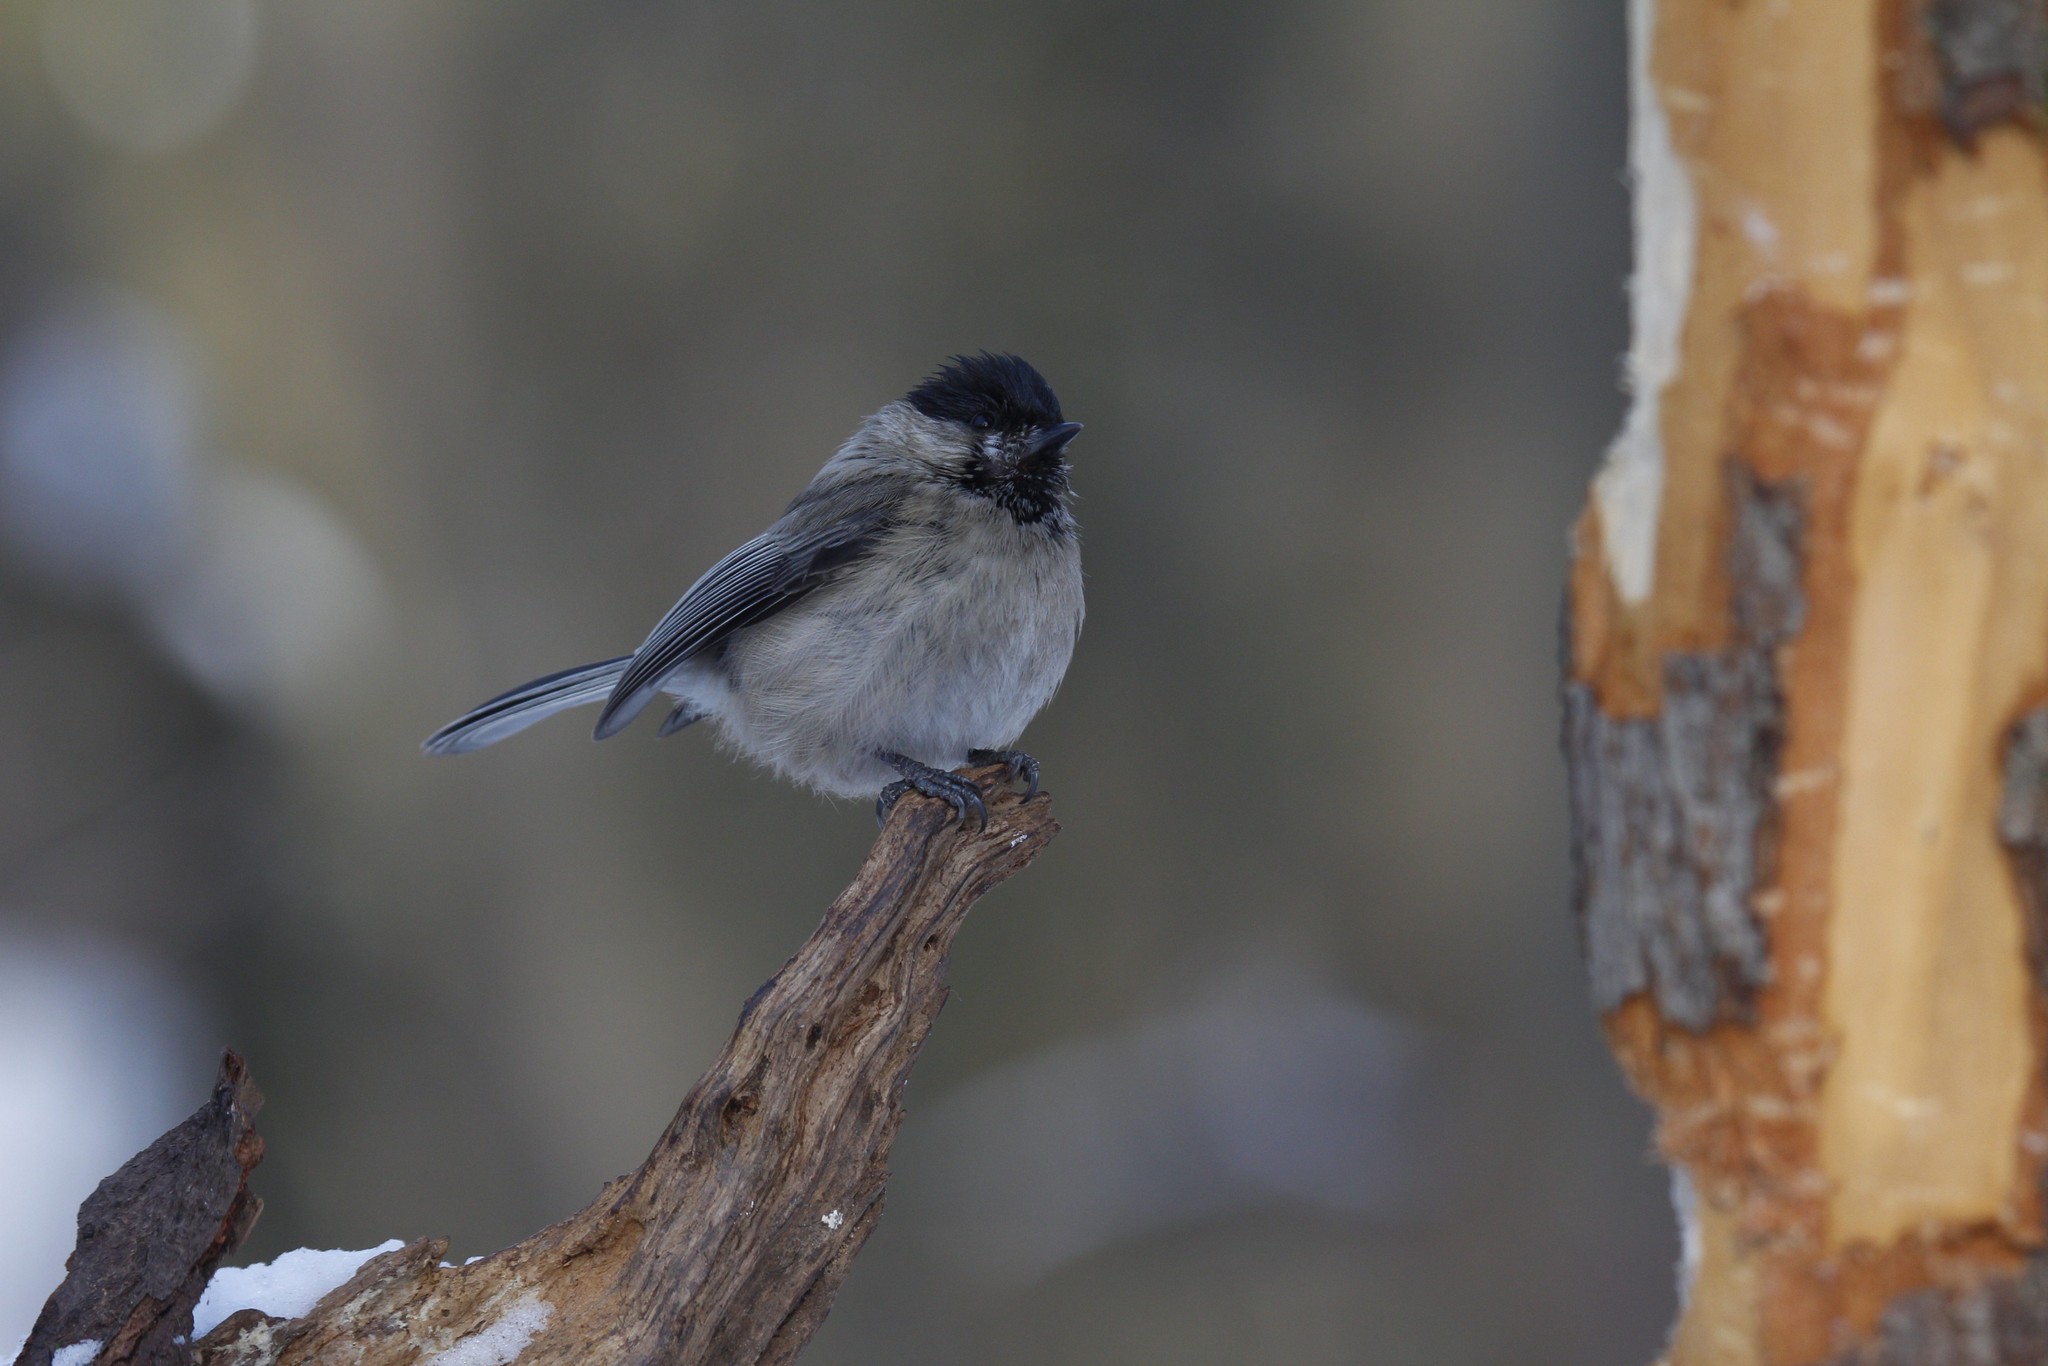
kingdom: Animalia
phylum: Chordata
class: Aves
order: Passeriformes
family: Paridae
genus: Poecile
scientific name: Poecile montanus
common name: Willow tit
